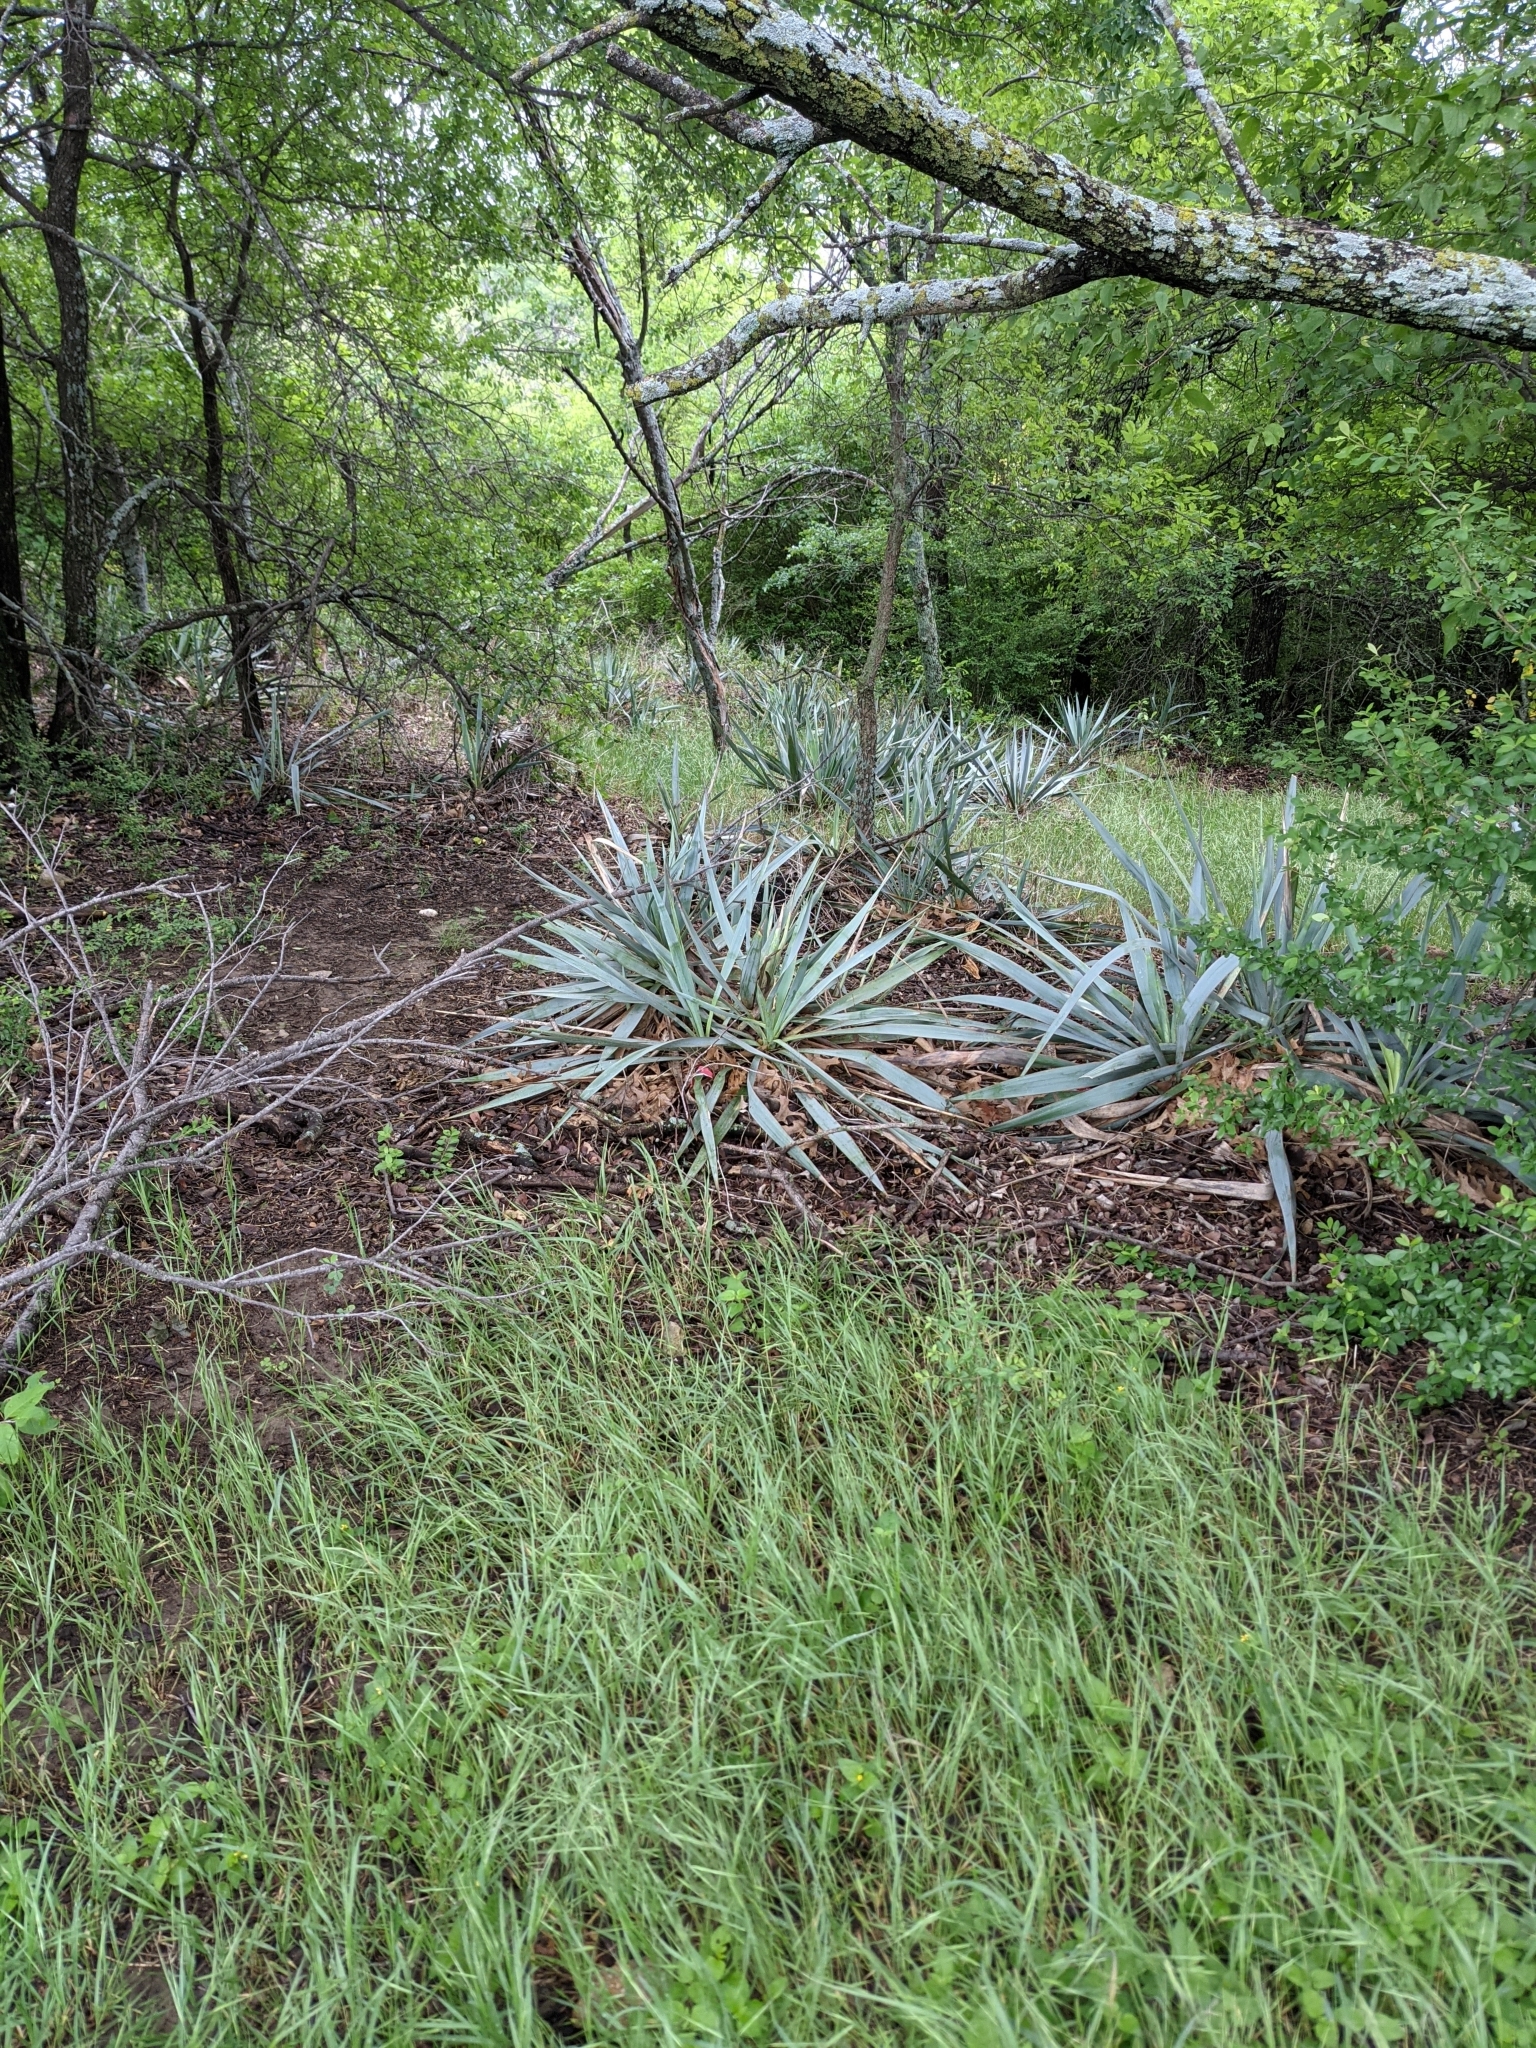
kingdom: Plantae
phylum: Tracheophyta
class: Liliopsida
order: Asparagales
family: Asparagaceae
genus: Yucca
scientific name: Yucca pallida
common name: Pale leaf yucca
